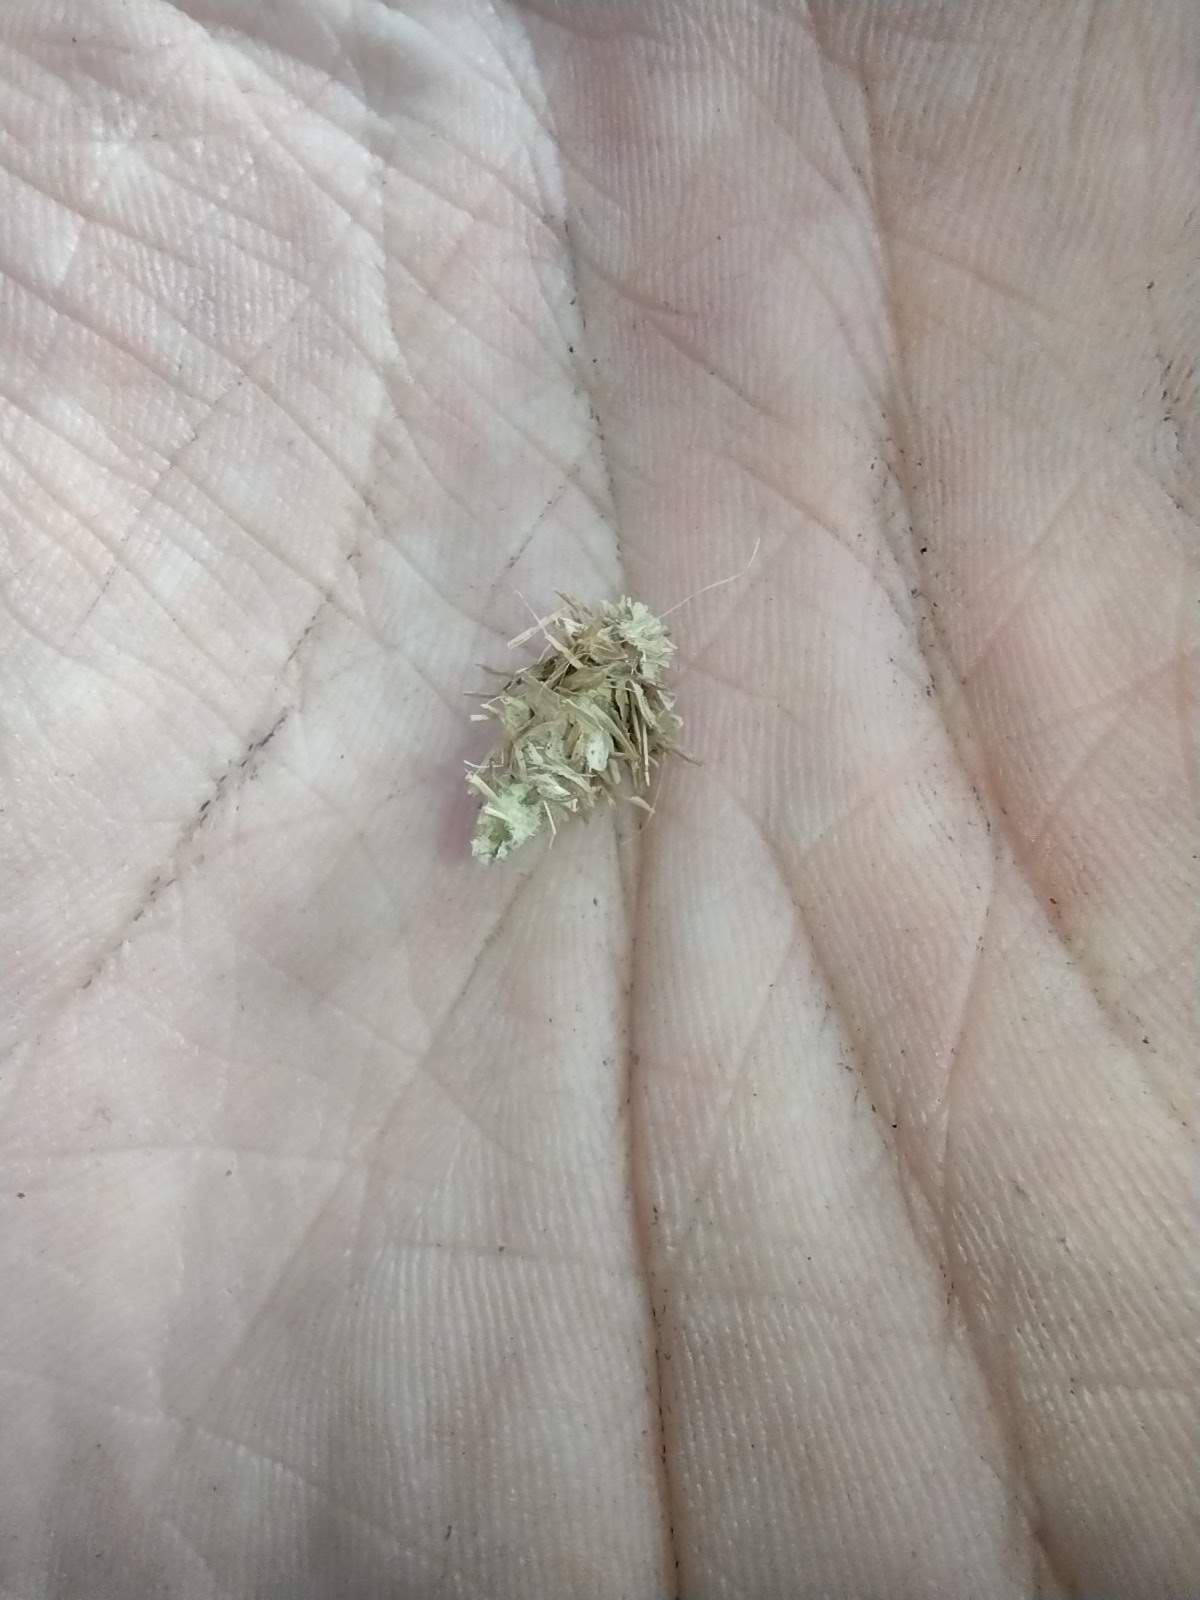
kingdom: Animalia
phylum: Arthropoda
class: Insecta
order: Lepidoptera
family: Psychidae
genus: Brachycyttarus
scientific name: Brachycyttarus griseus
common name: Grass bagworm
